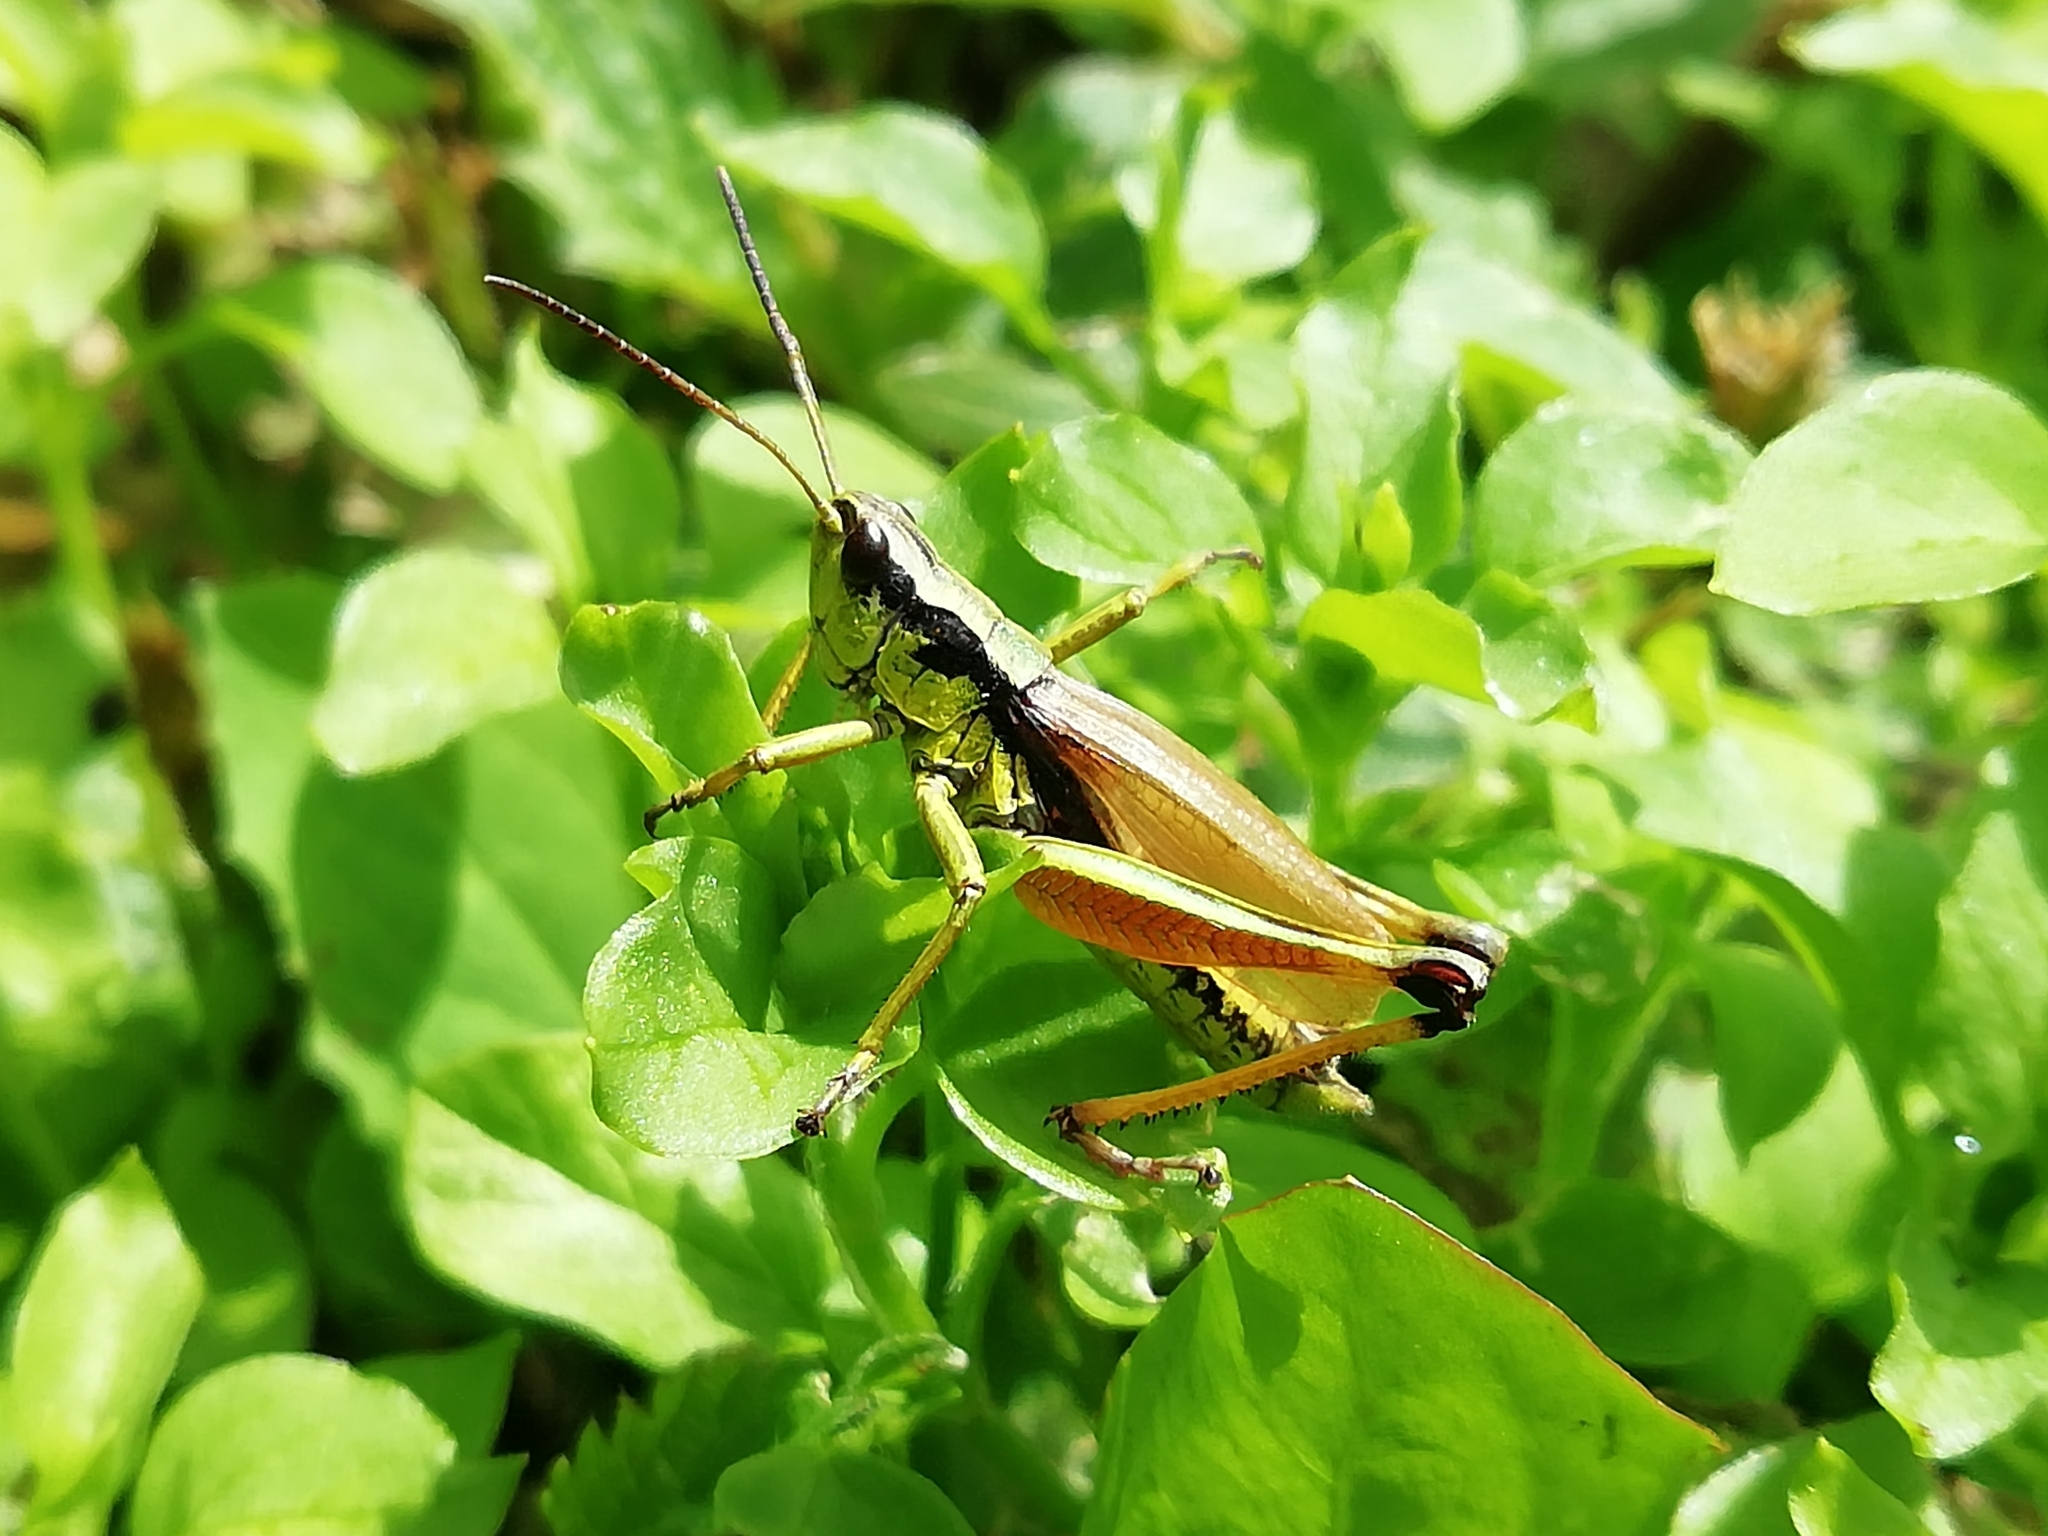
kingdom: Animalia
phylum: Arthropoda
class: Insecta
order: Orthoptera
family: Acrididae
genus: Podismopsis
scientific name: Podismopsis poppiusi
